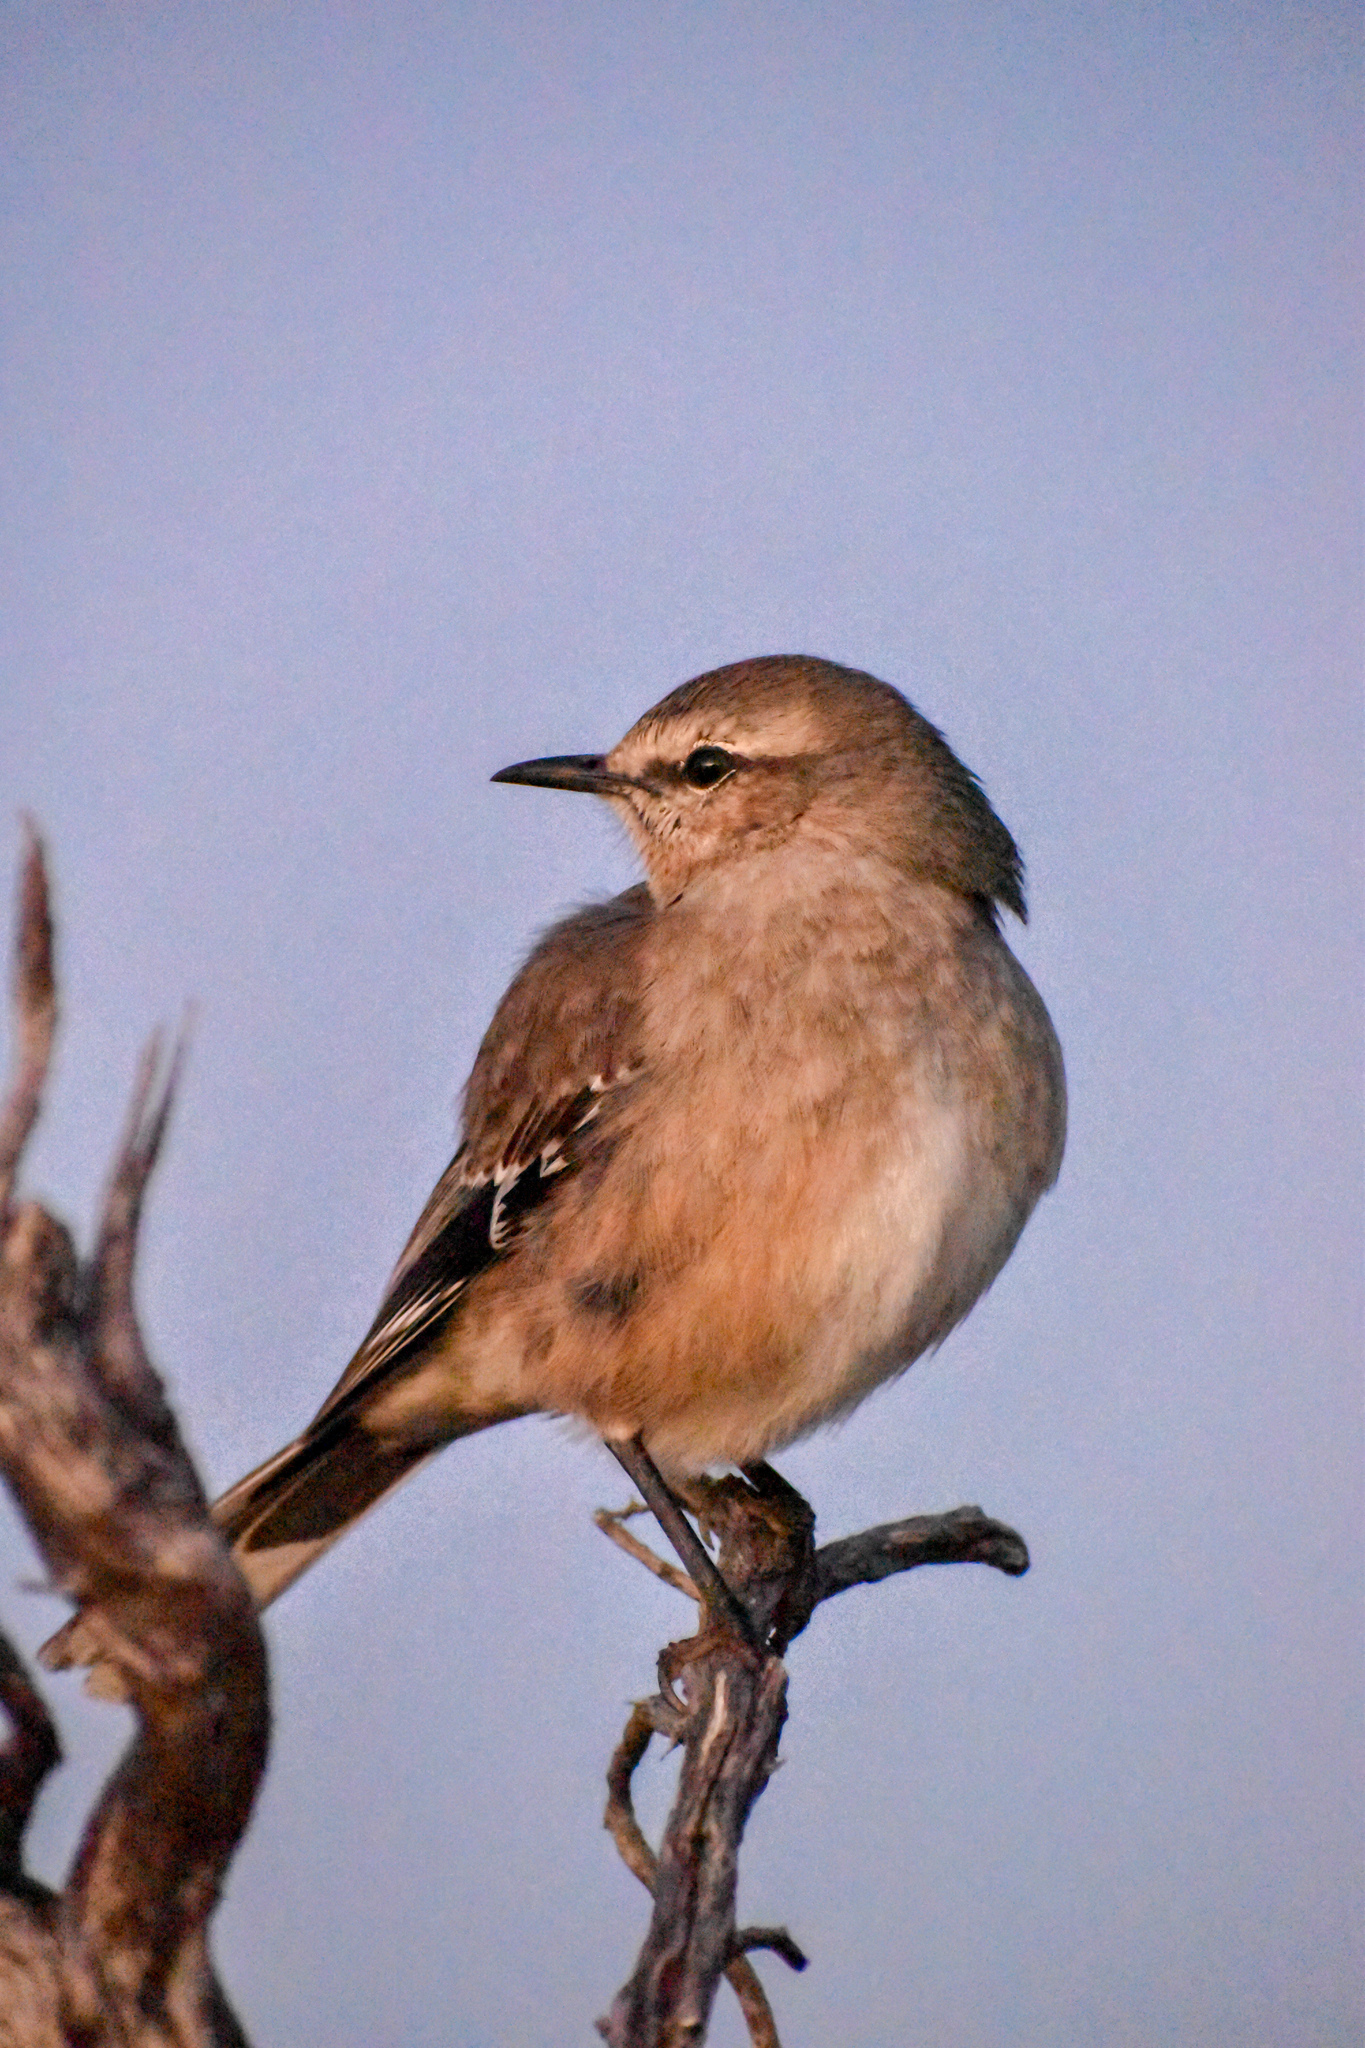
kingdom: Animalia
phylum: Chordata
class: Aves
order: Passeriformes
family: Mimidae
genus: Mimus
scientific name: Mimus patagonicus
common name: Patagonian mockingbird
